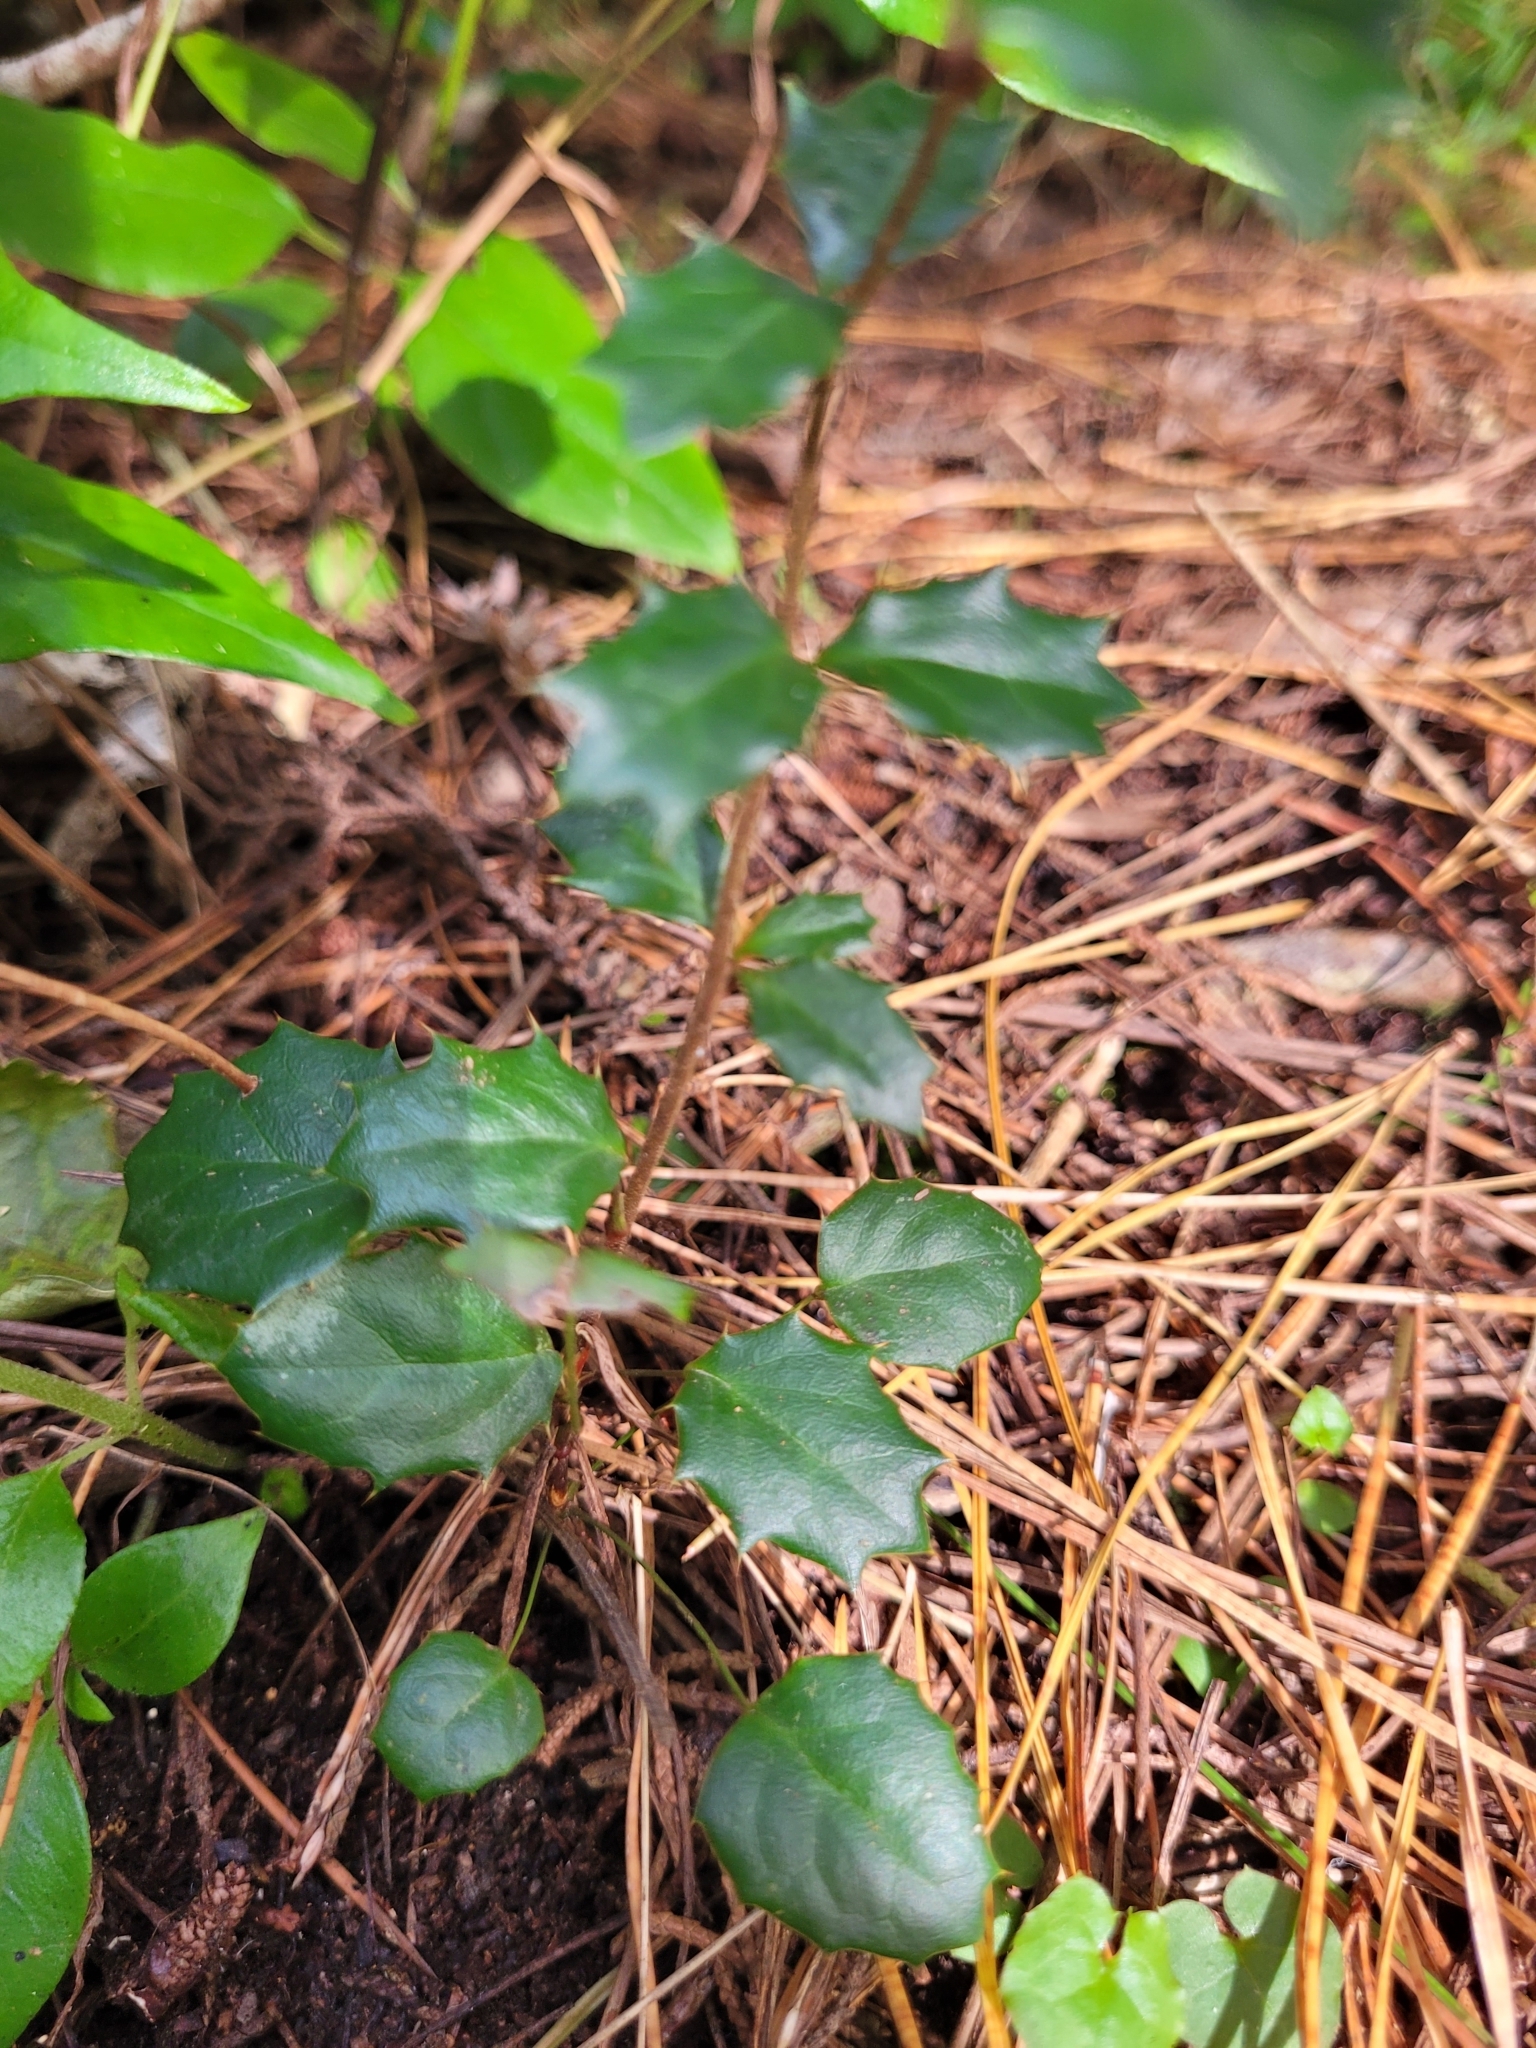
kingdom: Plantae
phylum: Tracheophyta
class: Magnoliopsida
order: Ranunculales
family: Berberidaceae
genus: Berberis
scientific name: Berberis darwinii
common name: Darwin's barberry
